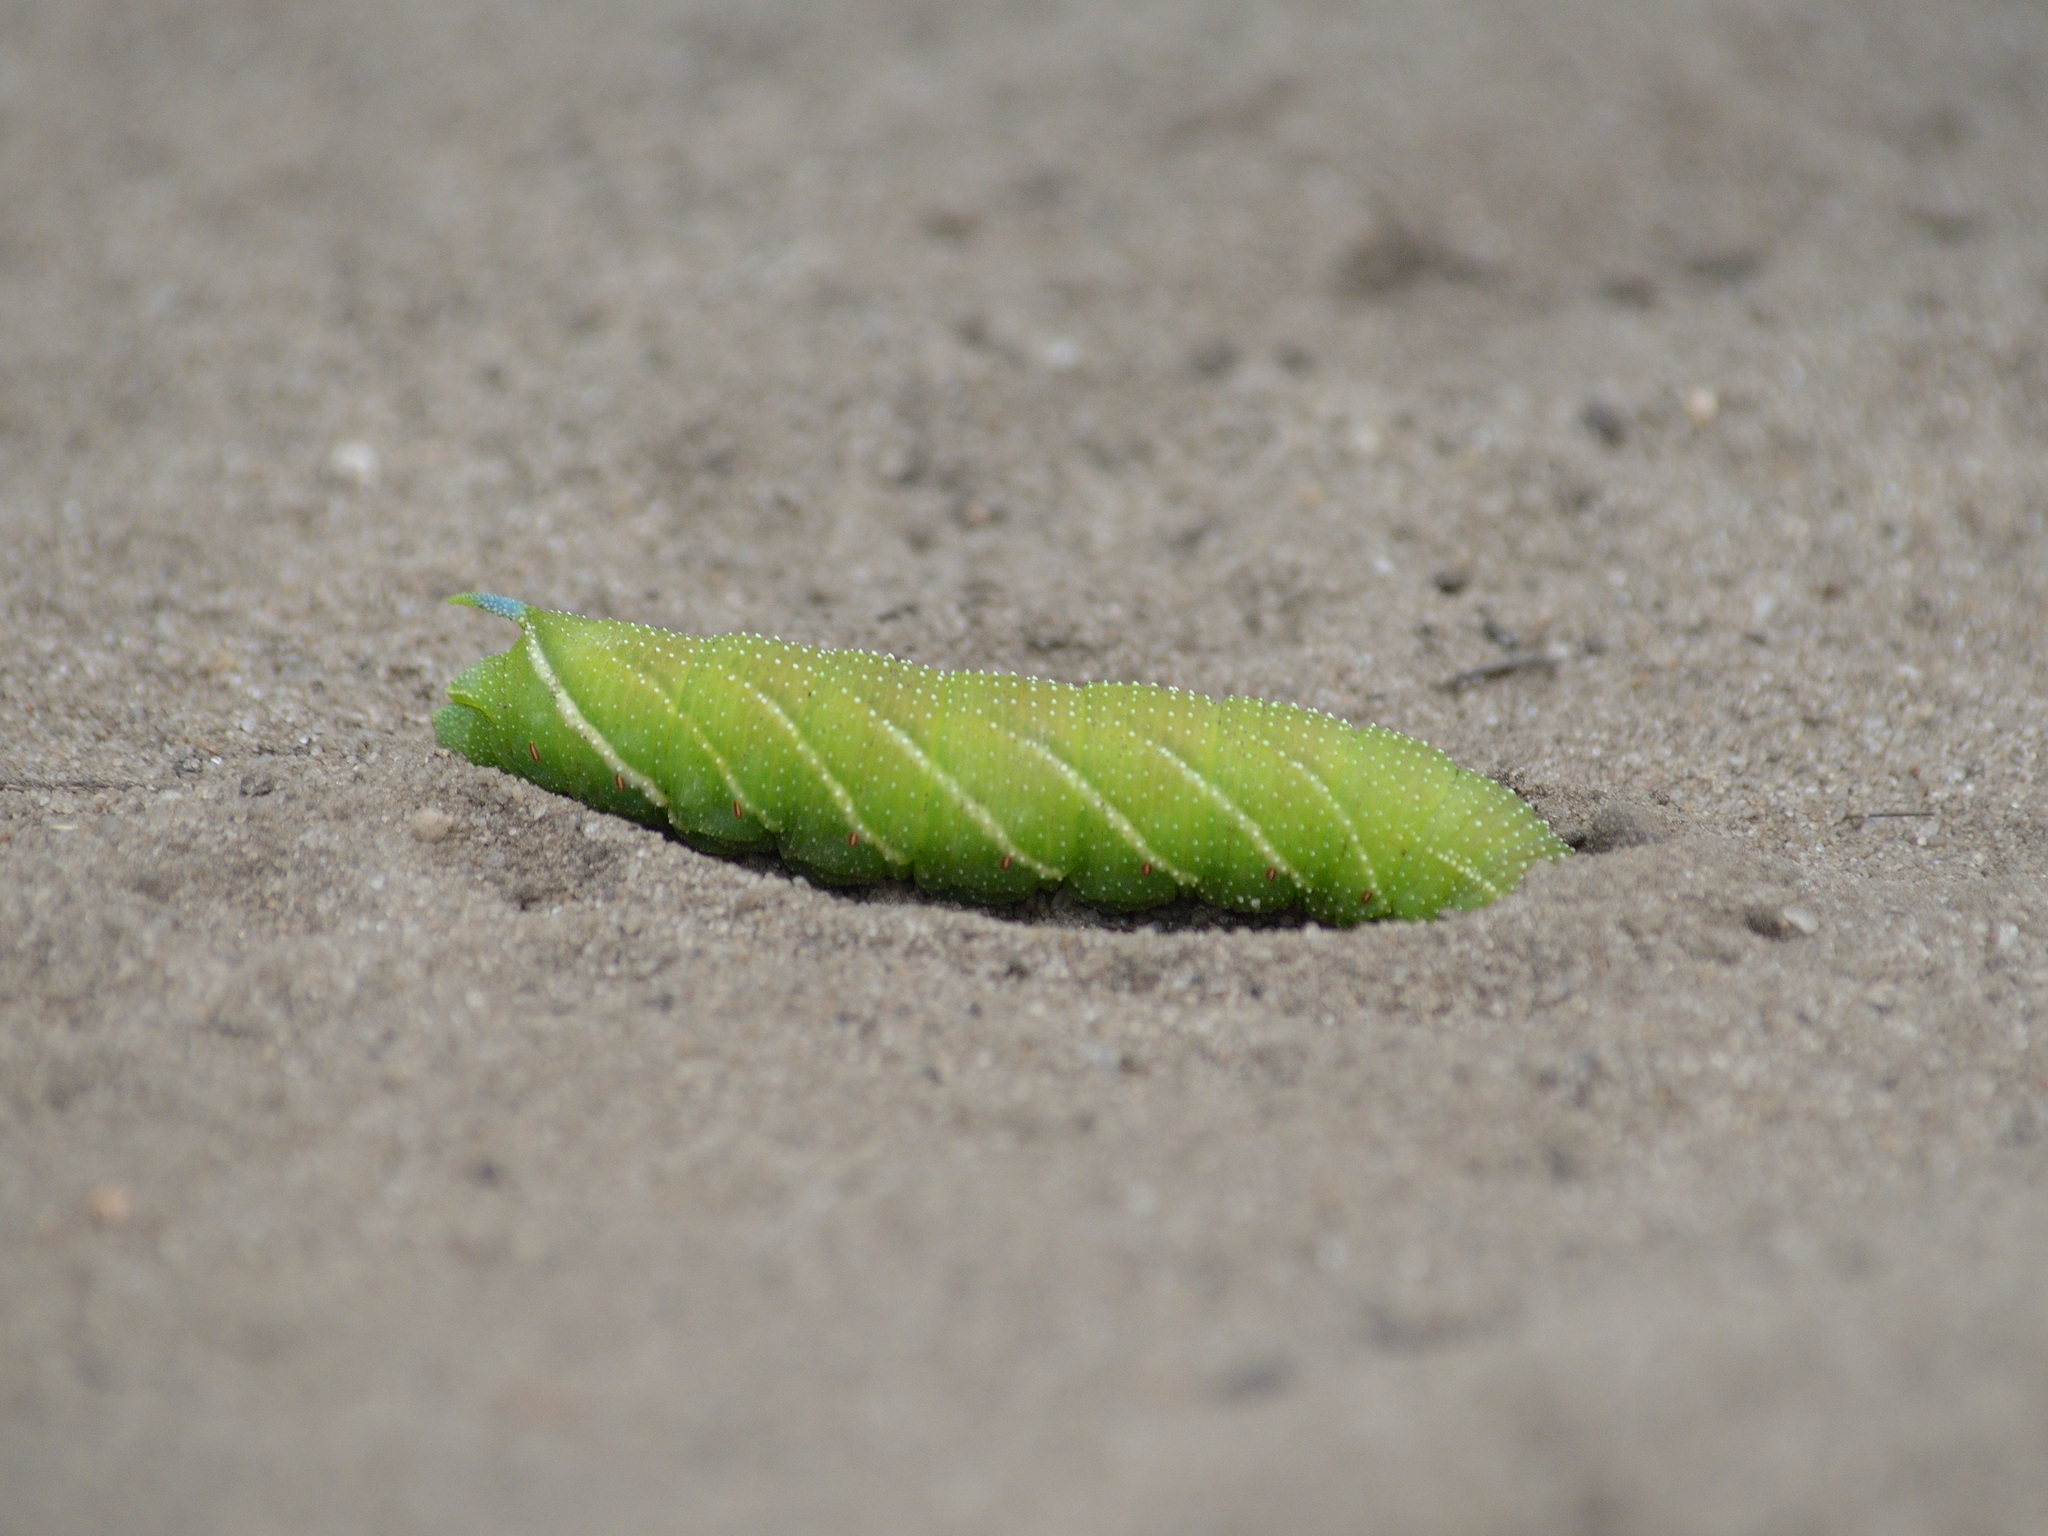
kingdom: Animalia
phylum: Arthropoda
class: Insecta
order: Lepidoptera
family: Sphingidae
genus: Smerinthus
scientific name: Smerinthus ocellata
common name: Eyed hawk-moth
